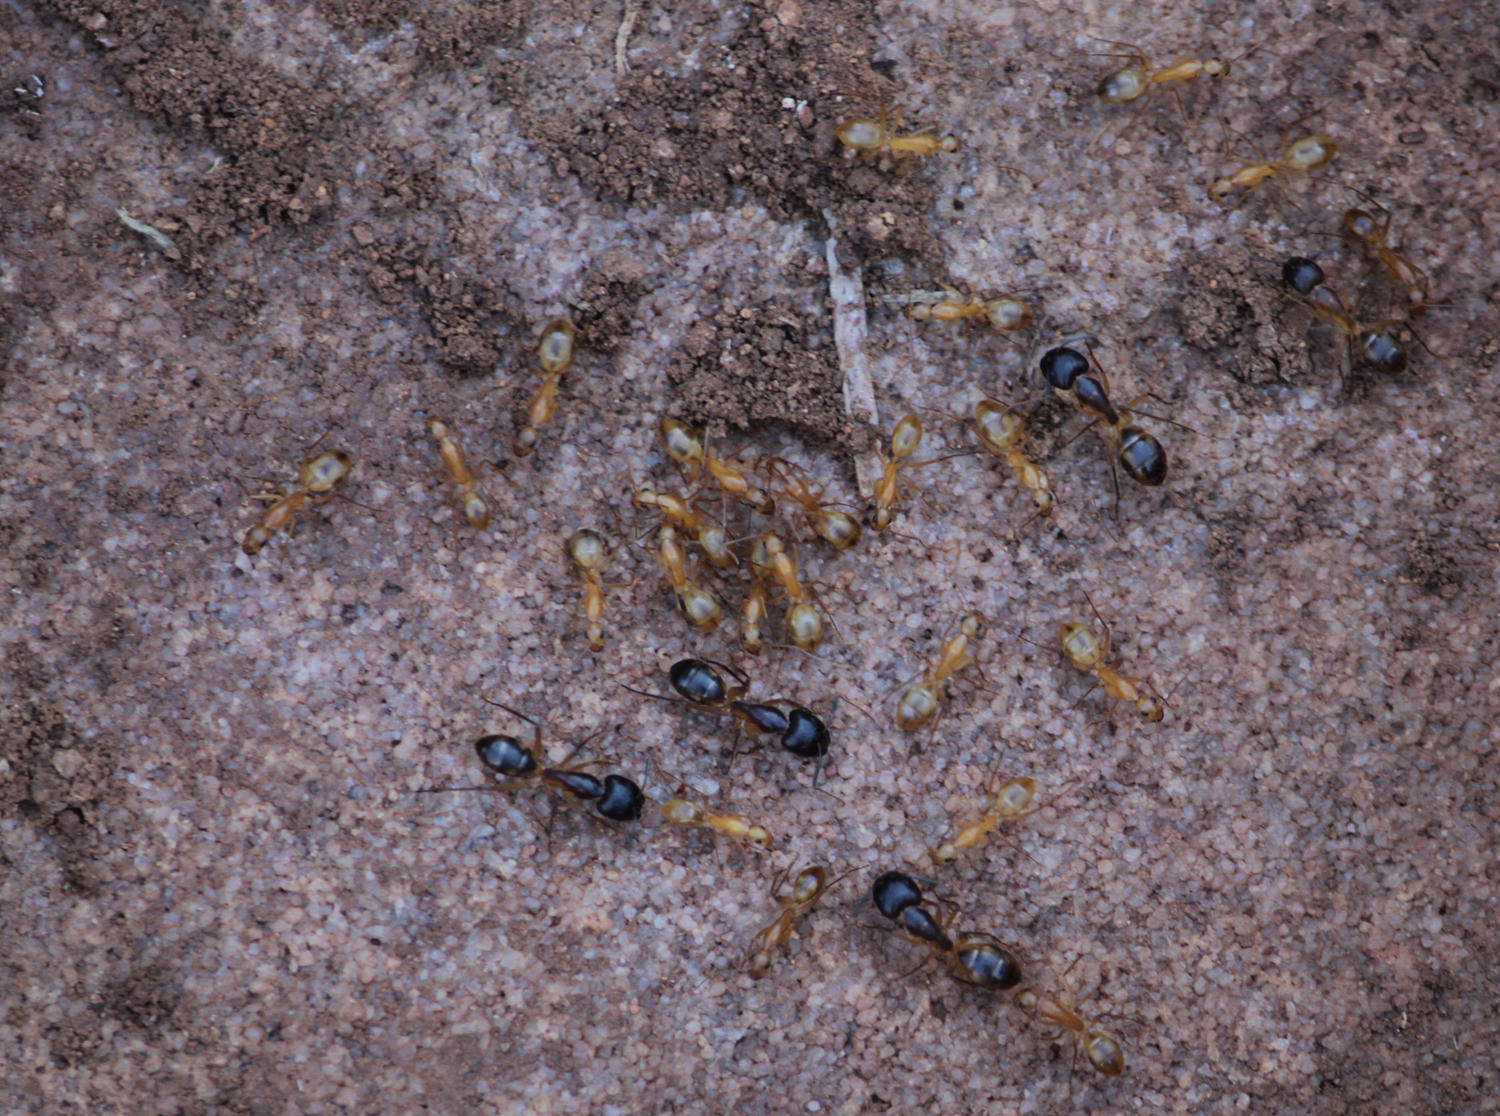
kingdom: Animalia
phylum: Arthropoda
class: Insecta
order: Hymenoptera
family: Formicidae
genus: Camponotus
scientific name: Camponotus maculatus
